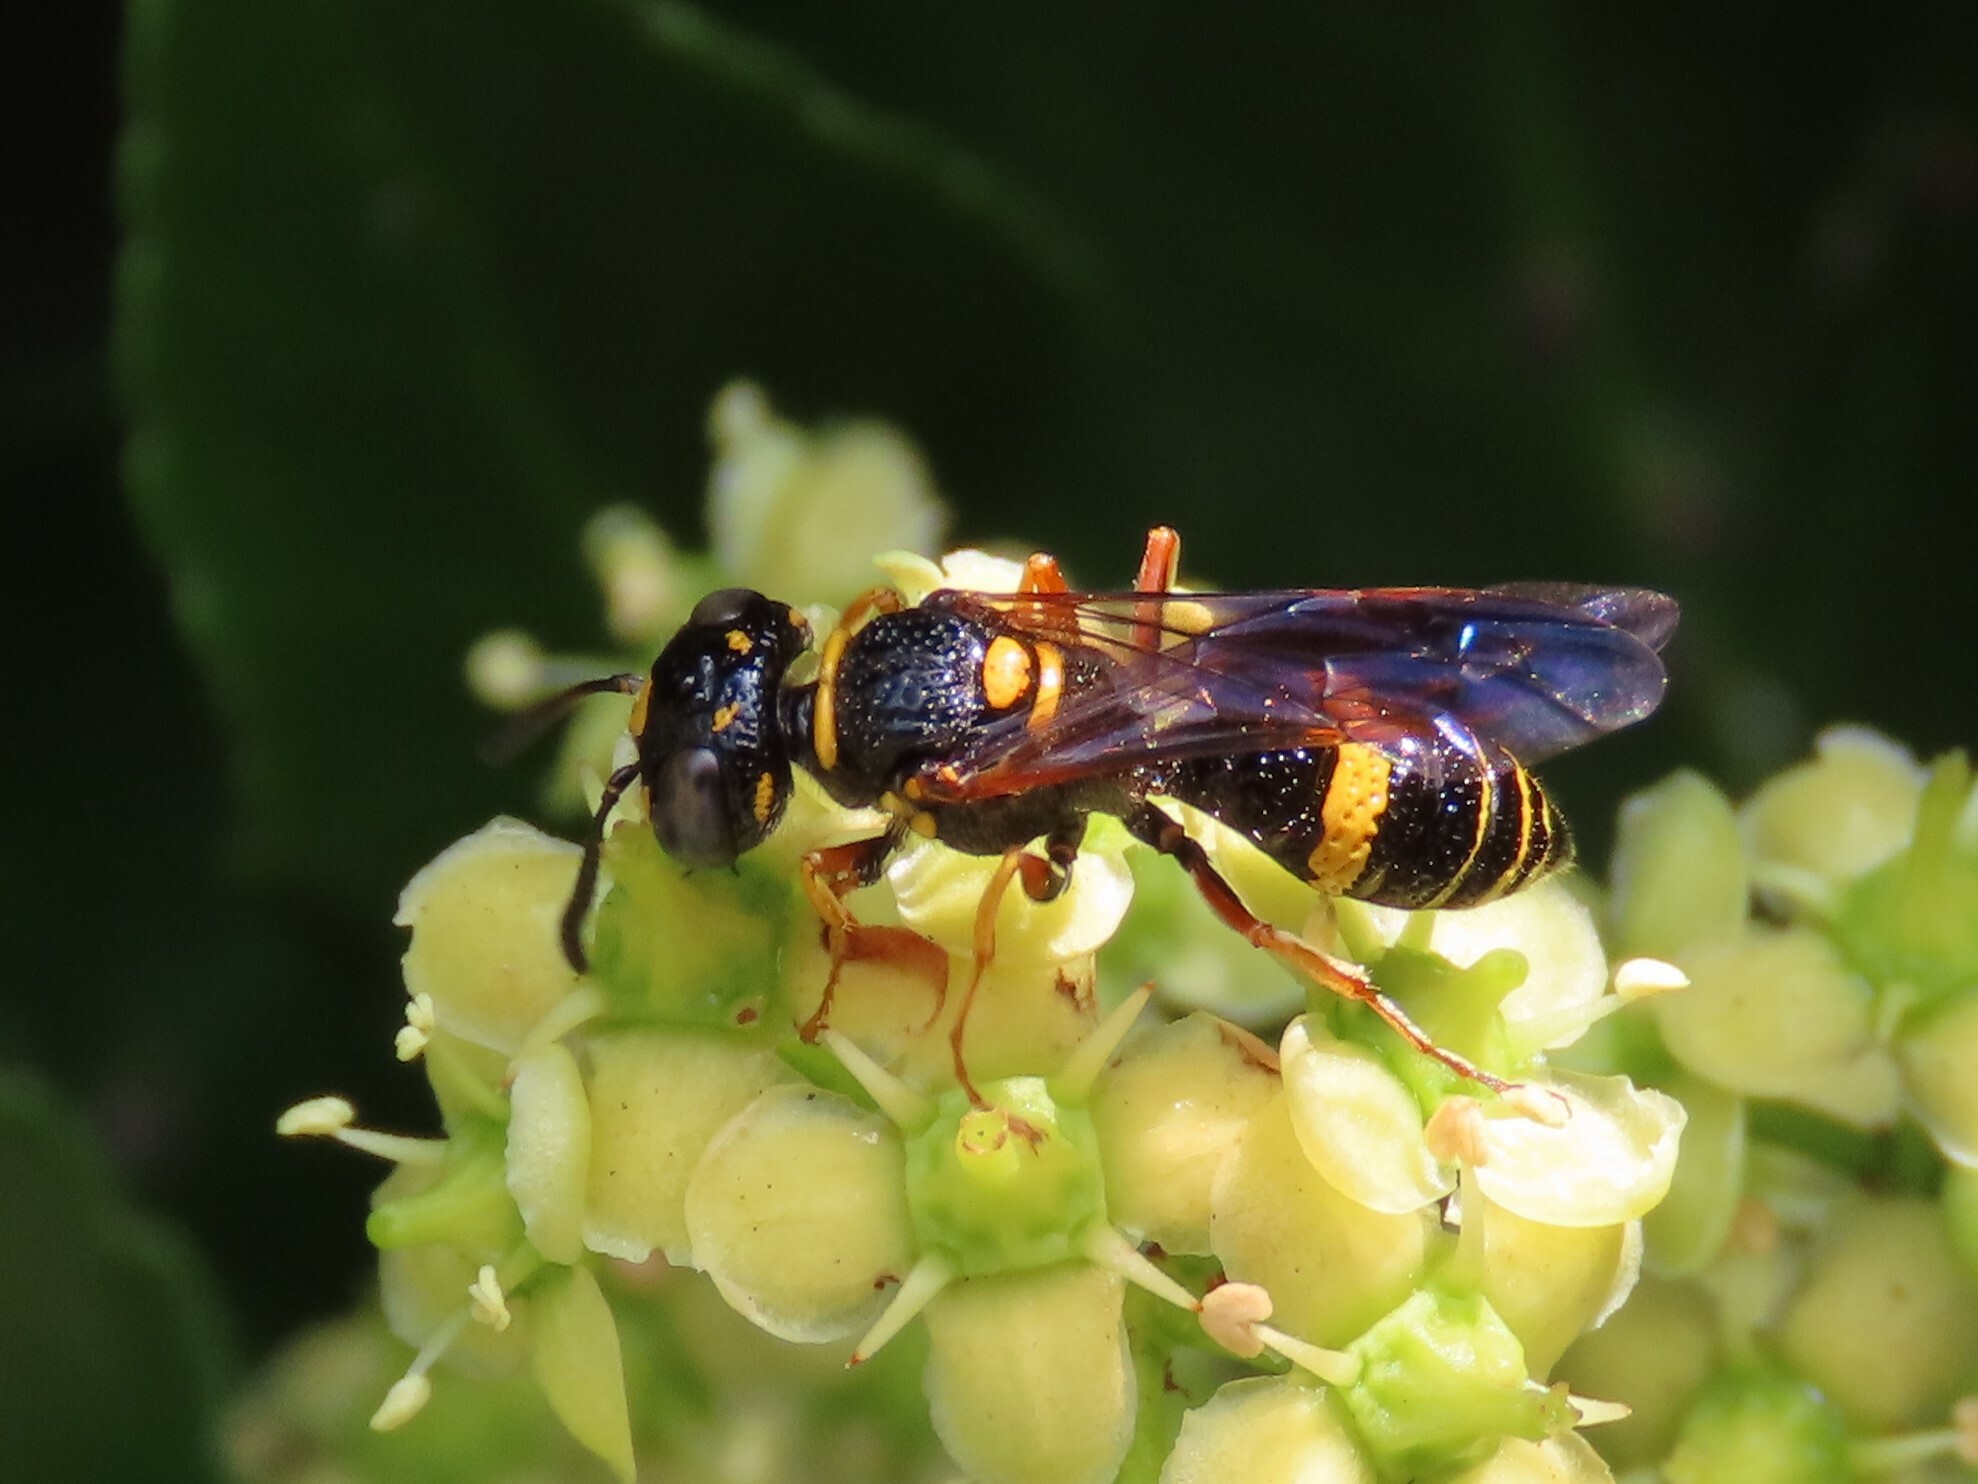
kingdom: Animalia
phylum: Arthropoda
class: Insecta
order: Hymenoptera
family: Crabronidae
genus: Philanthus
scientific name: Philanthus gibbosus
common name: Humped beewolf
